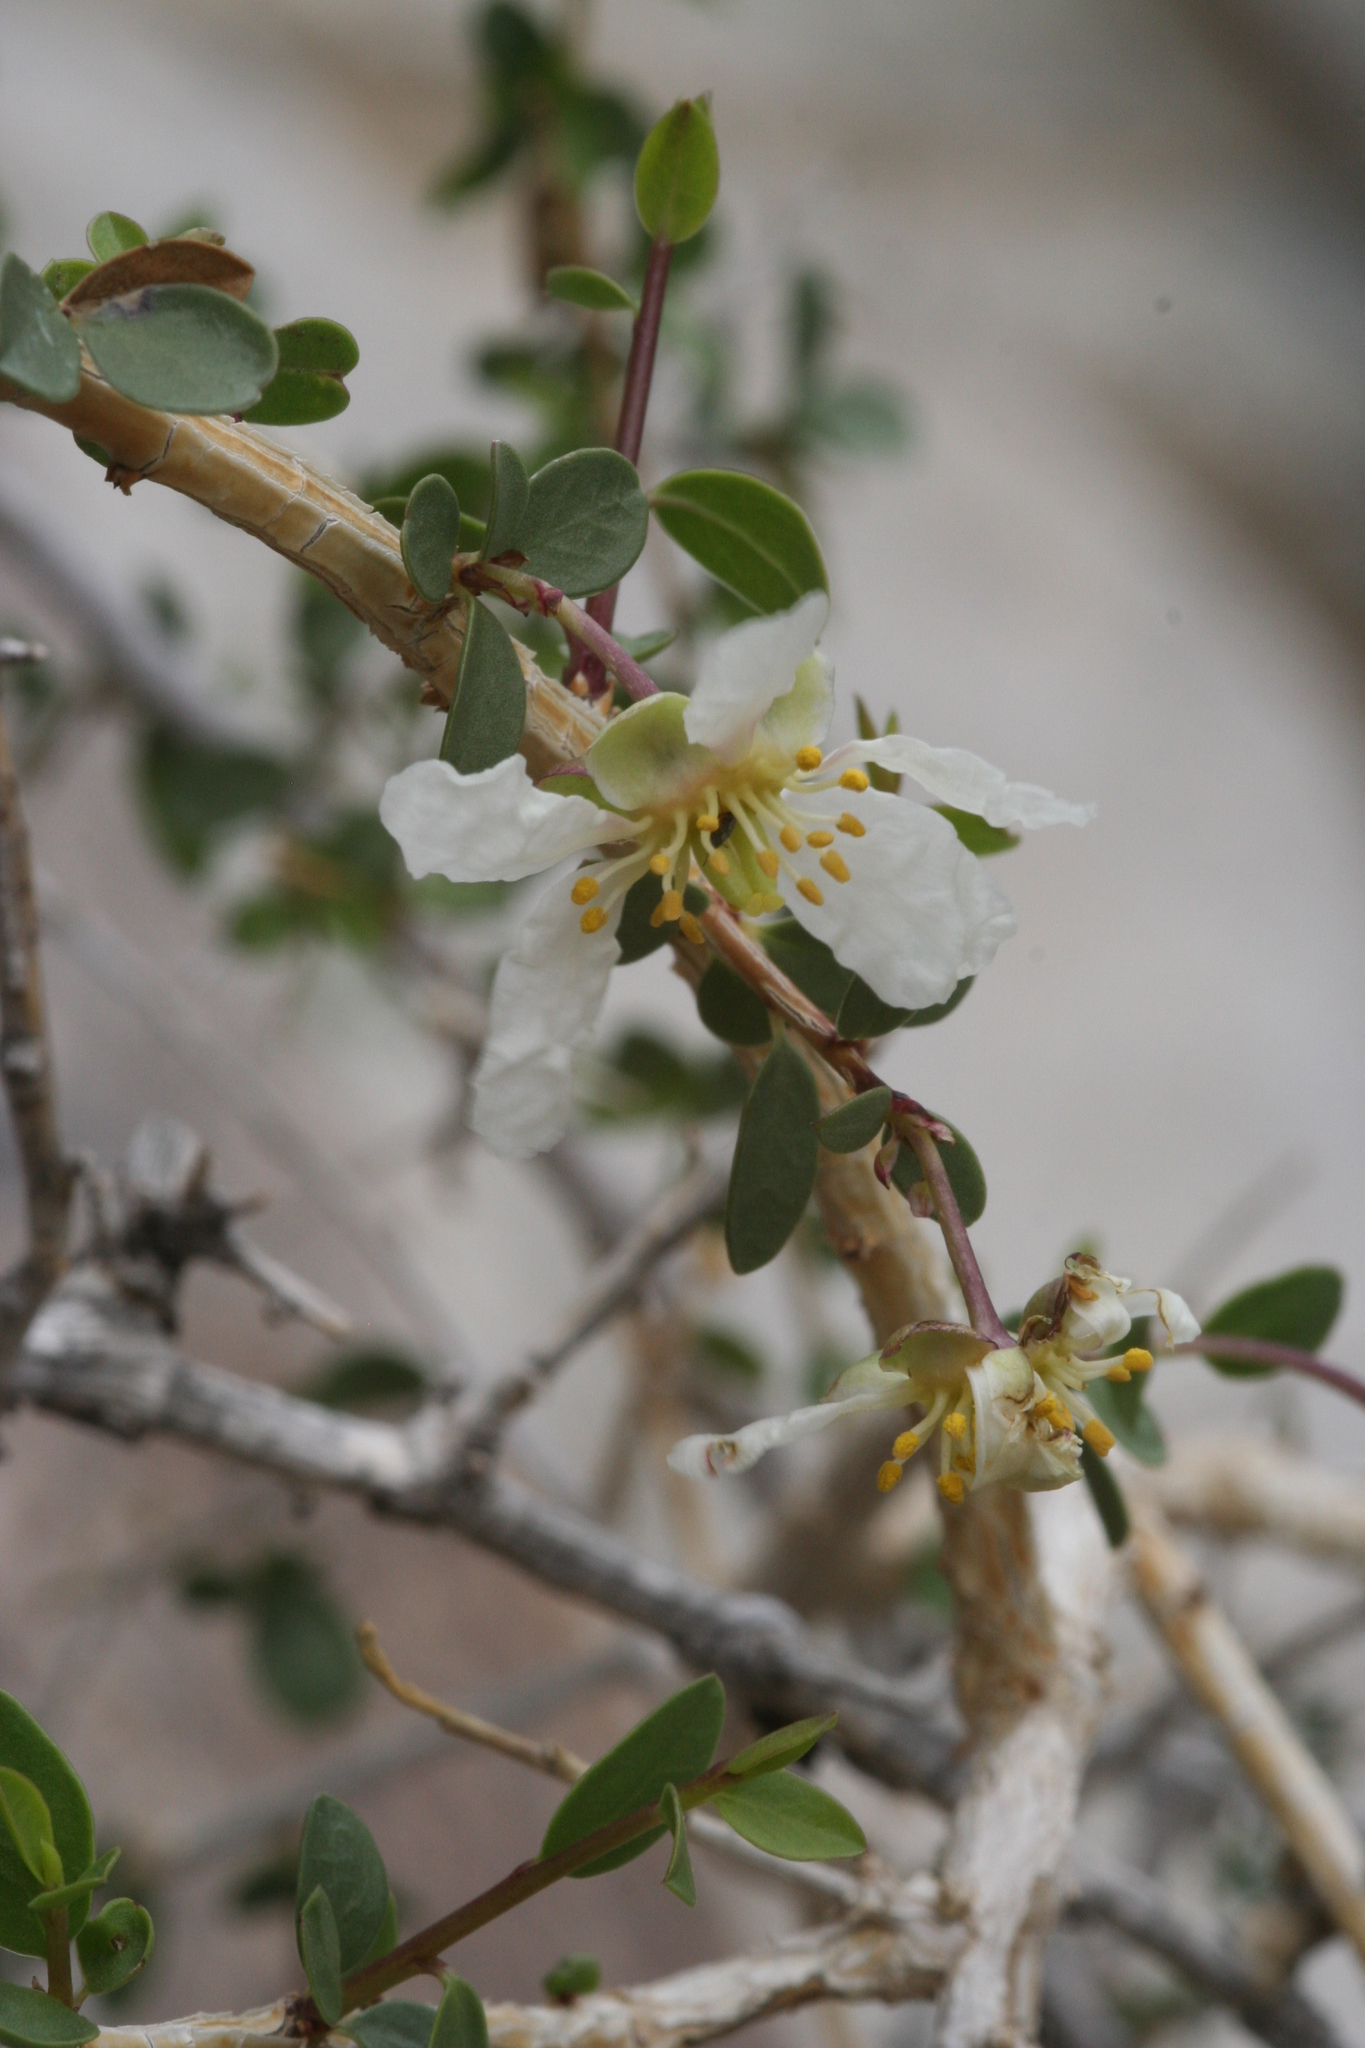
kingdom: Plantae
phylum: Tracheophyta
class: Magnoliopsida
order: Crossosomatales
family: Crossosomataceae
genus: Crossosoma
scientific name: Crossosoma bigelovii
